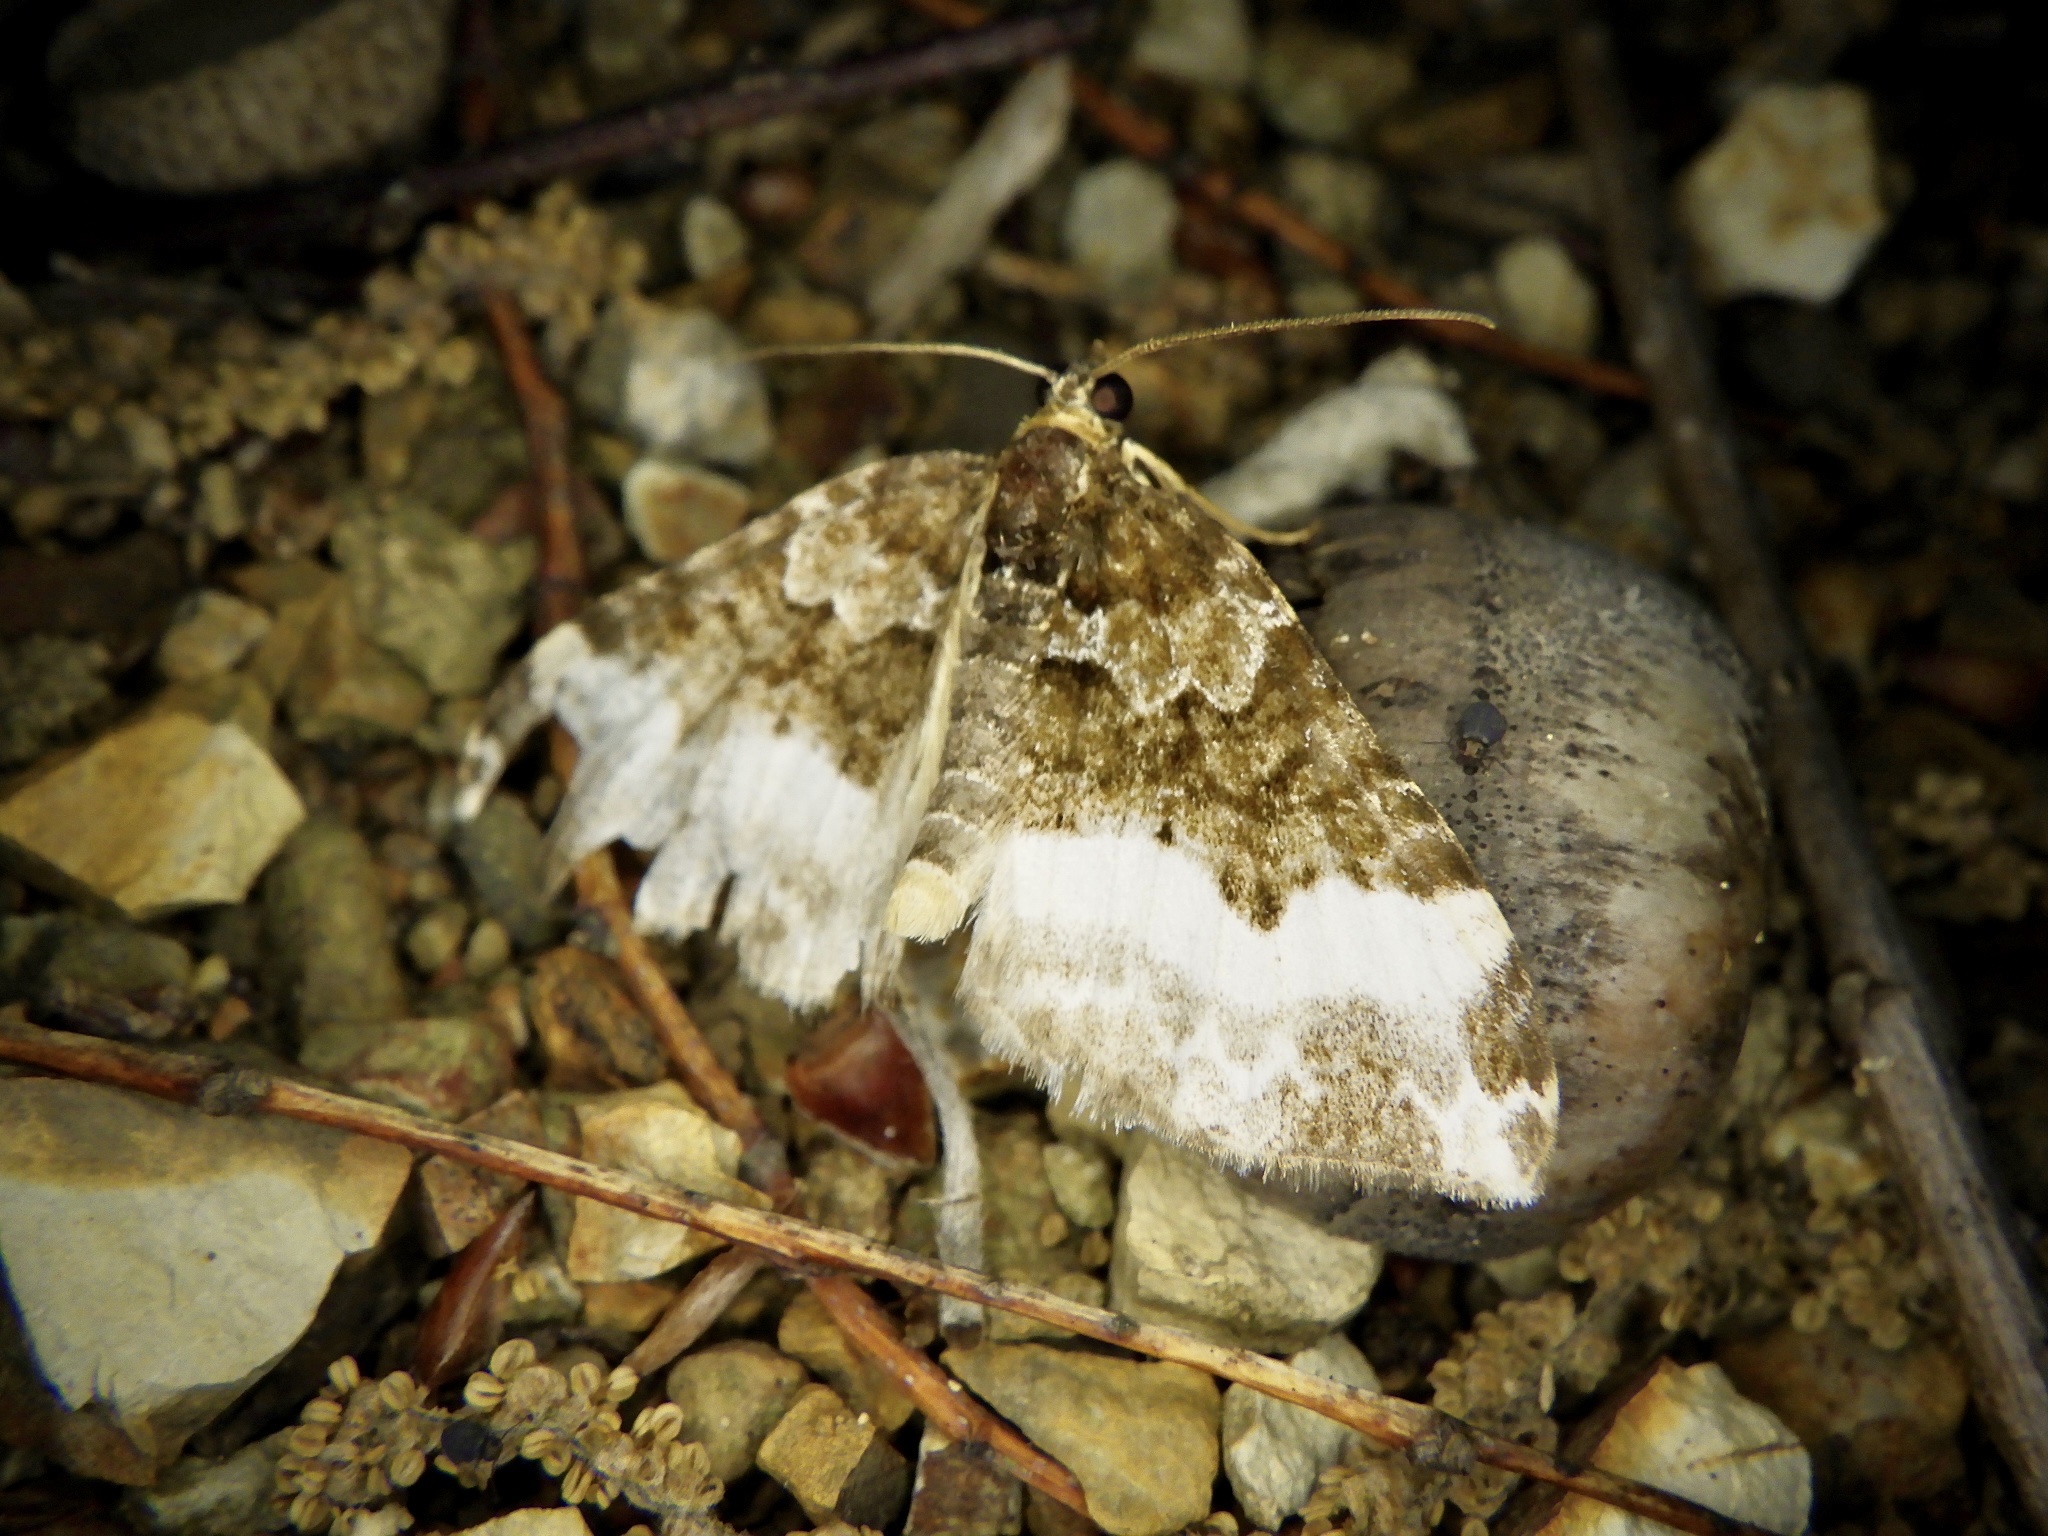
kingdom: Animalia
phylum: Arthropoda
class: Insecta
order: Lepidoptera
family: Geometridae
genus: Euphyia
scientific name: Euphyia cineraria
